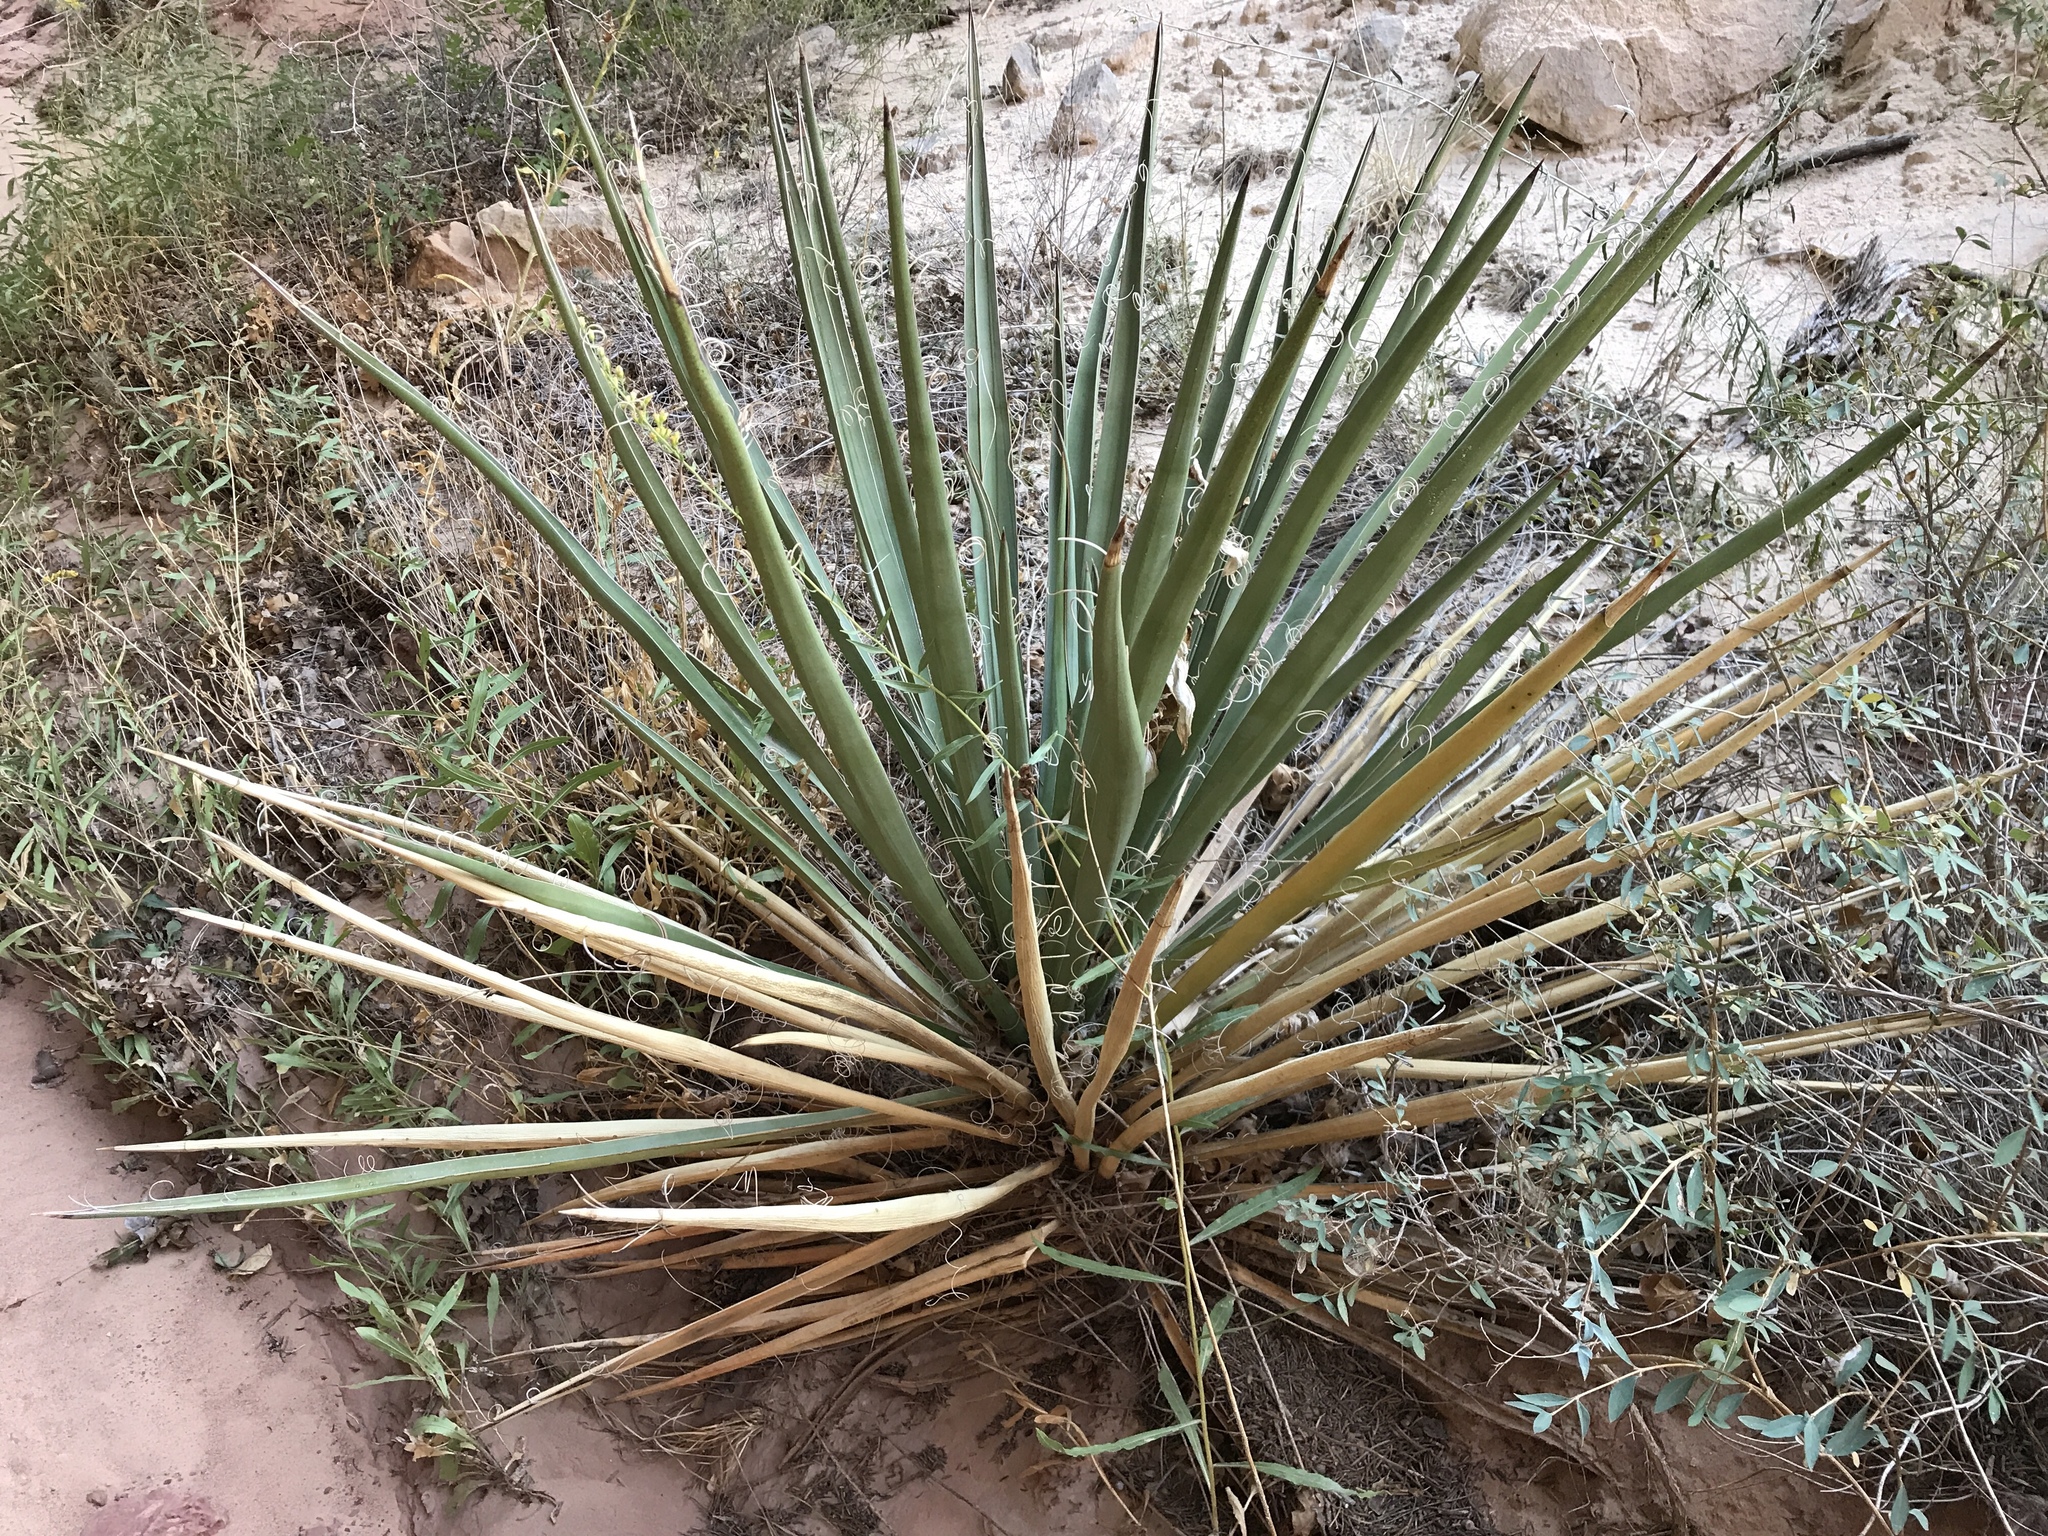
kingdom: Plantae
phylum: Tracheophyta
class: Liliopsida
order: Asparagales
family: Asparagaceae
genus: Yucca
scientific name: Yucca baccata
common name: Banana yucca
